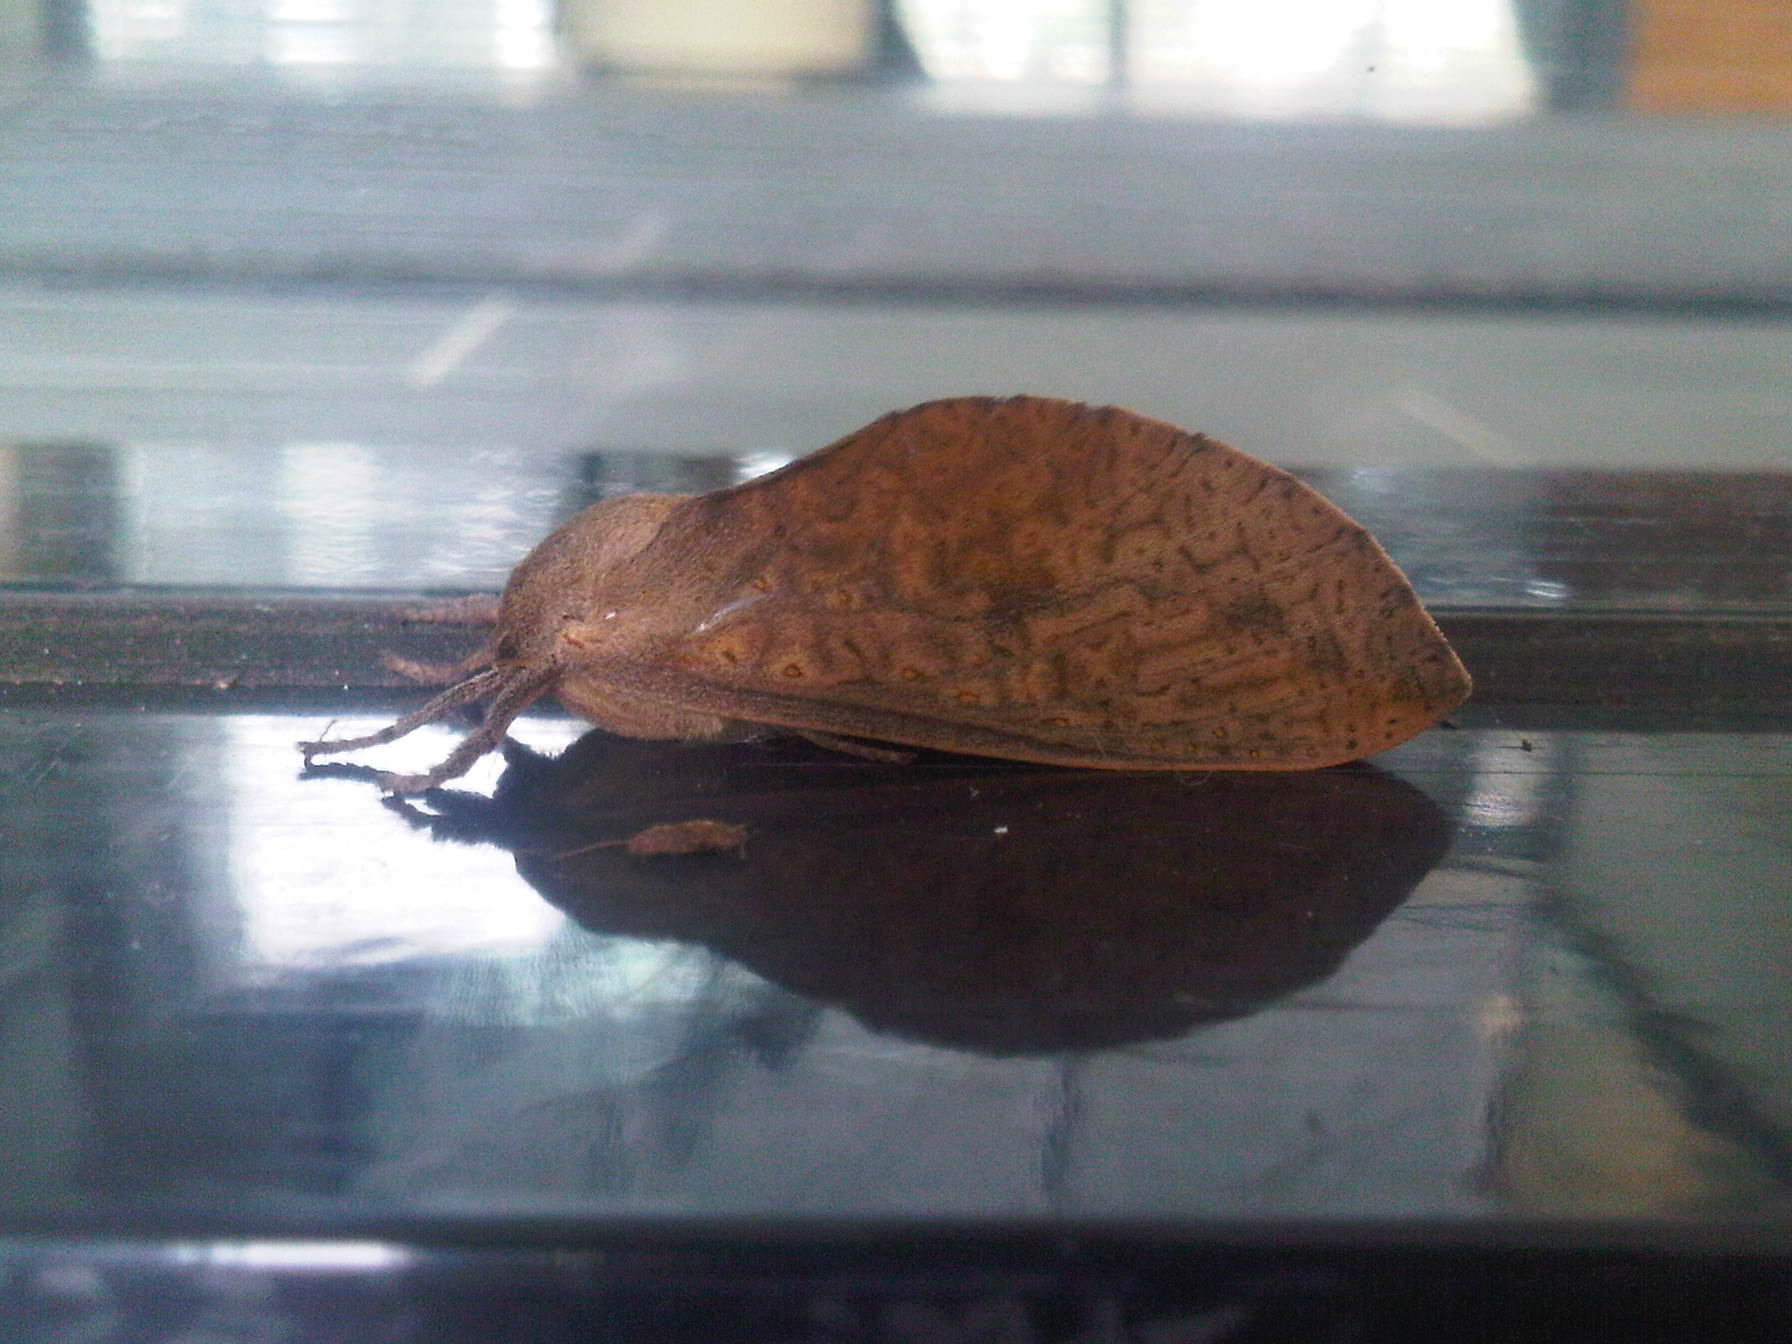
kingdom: Animalia
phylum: Arthropoda
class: Insecta
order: Lepidoptera
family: Hepialidae
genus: Elhamma
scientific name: Elhamma australasiae
